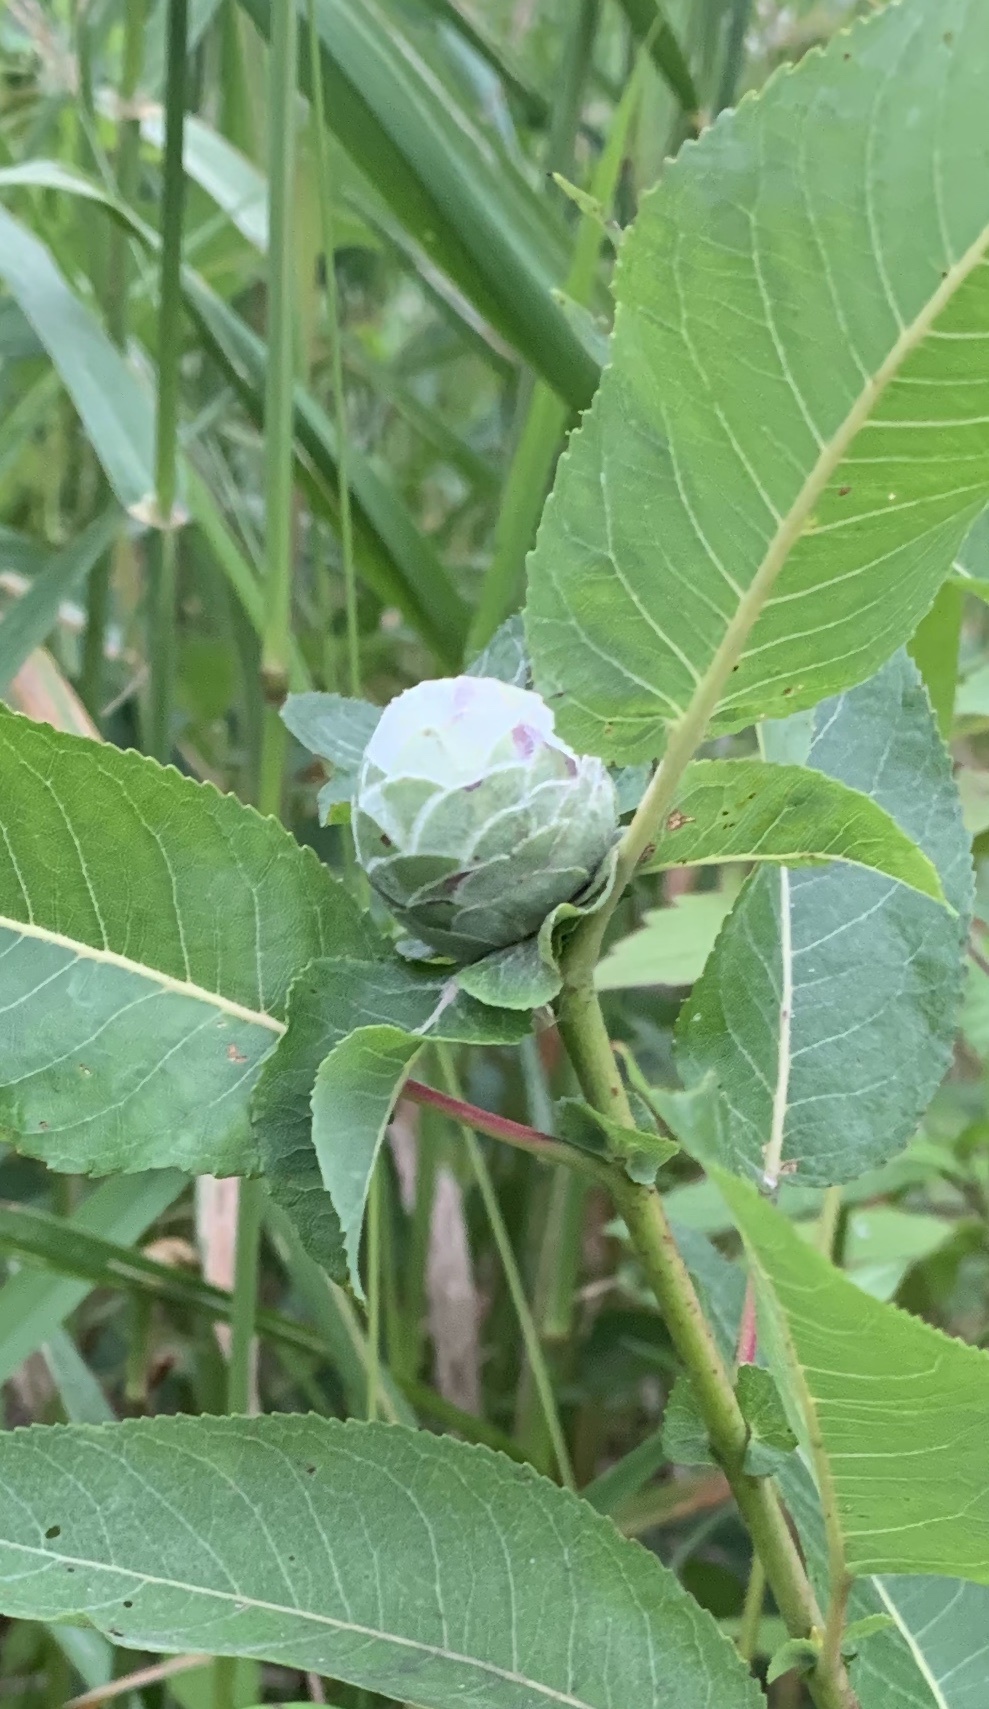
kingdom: Animalia
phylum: Arthropoda
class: Insecta
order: Diptera
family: Cecidomyiidae
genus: Rabdophaga
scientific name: Rabdophaga strobiloides
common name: Willow pinecone gall midge
